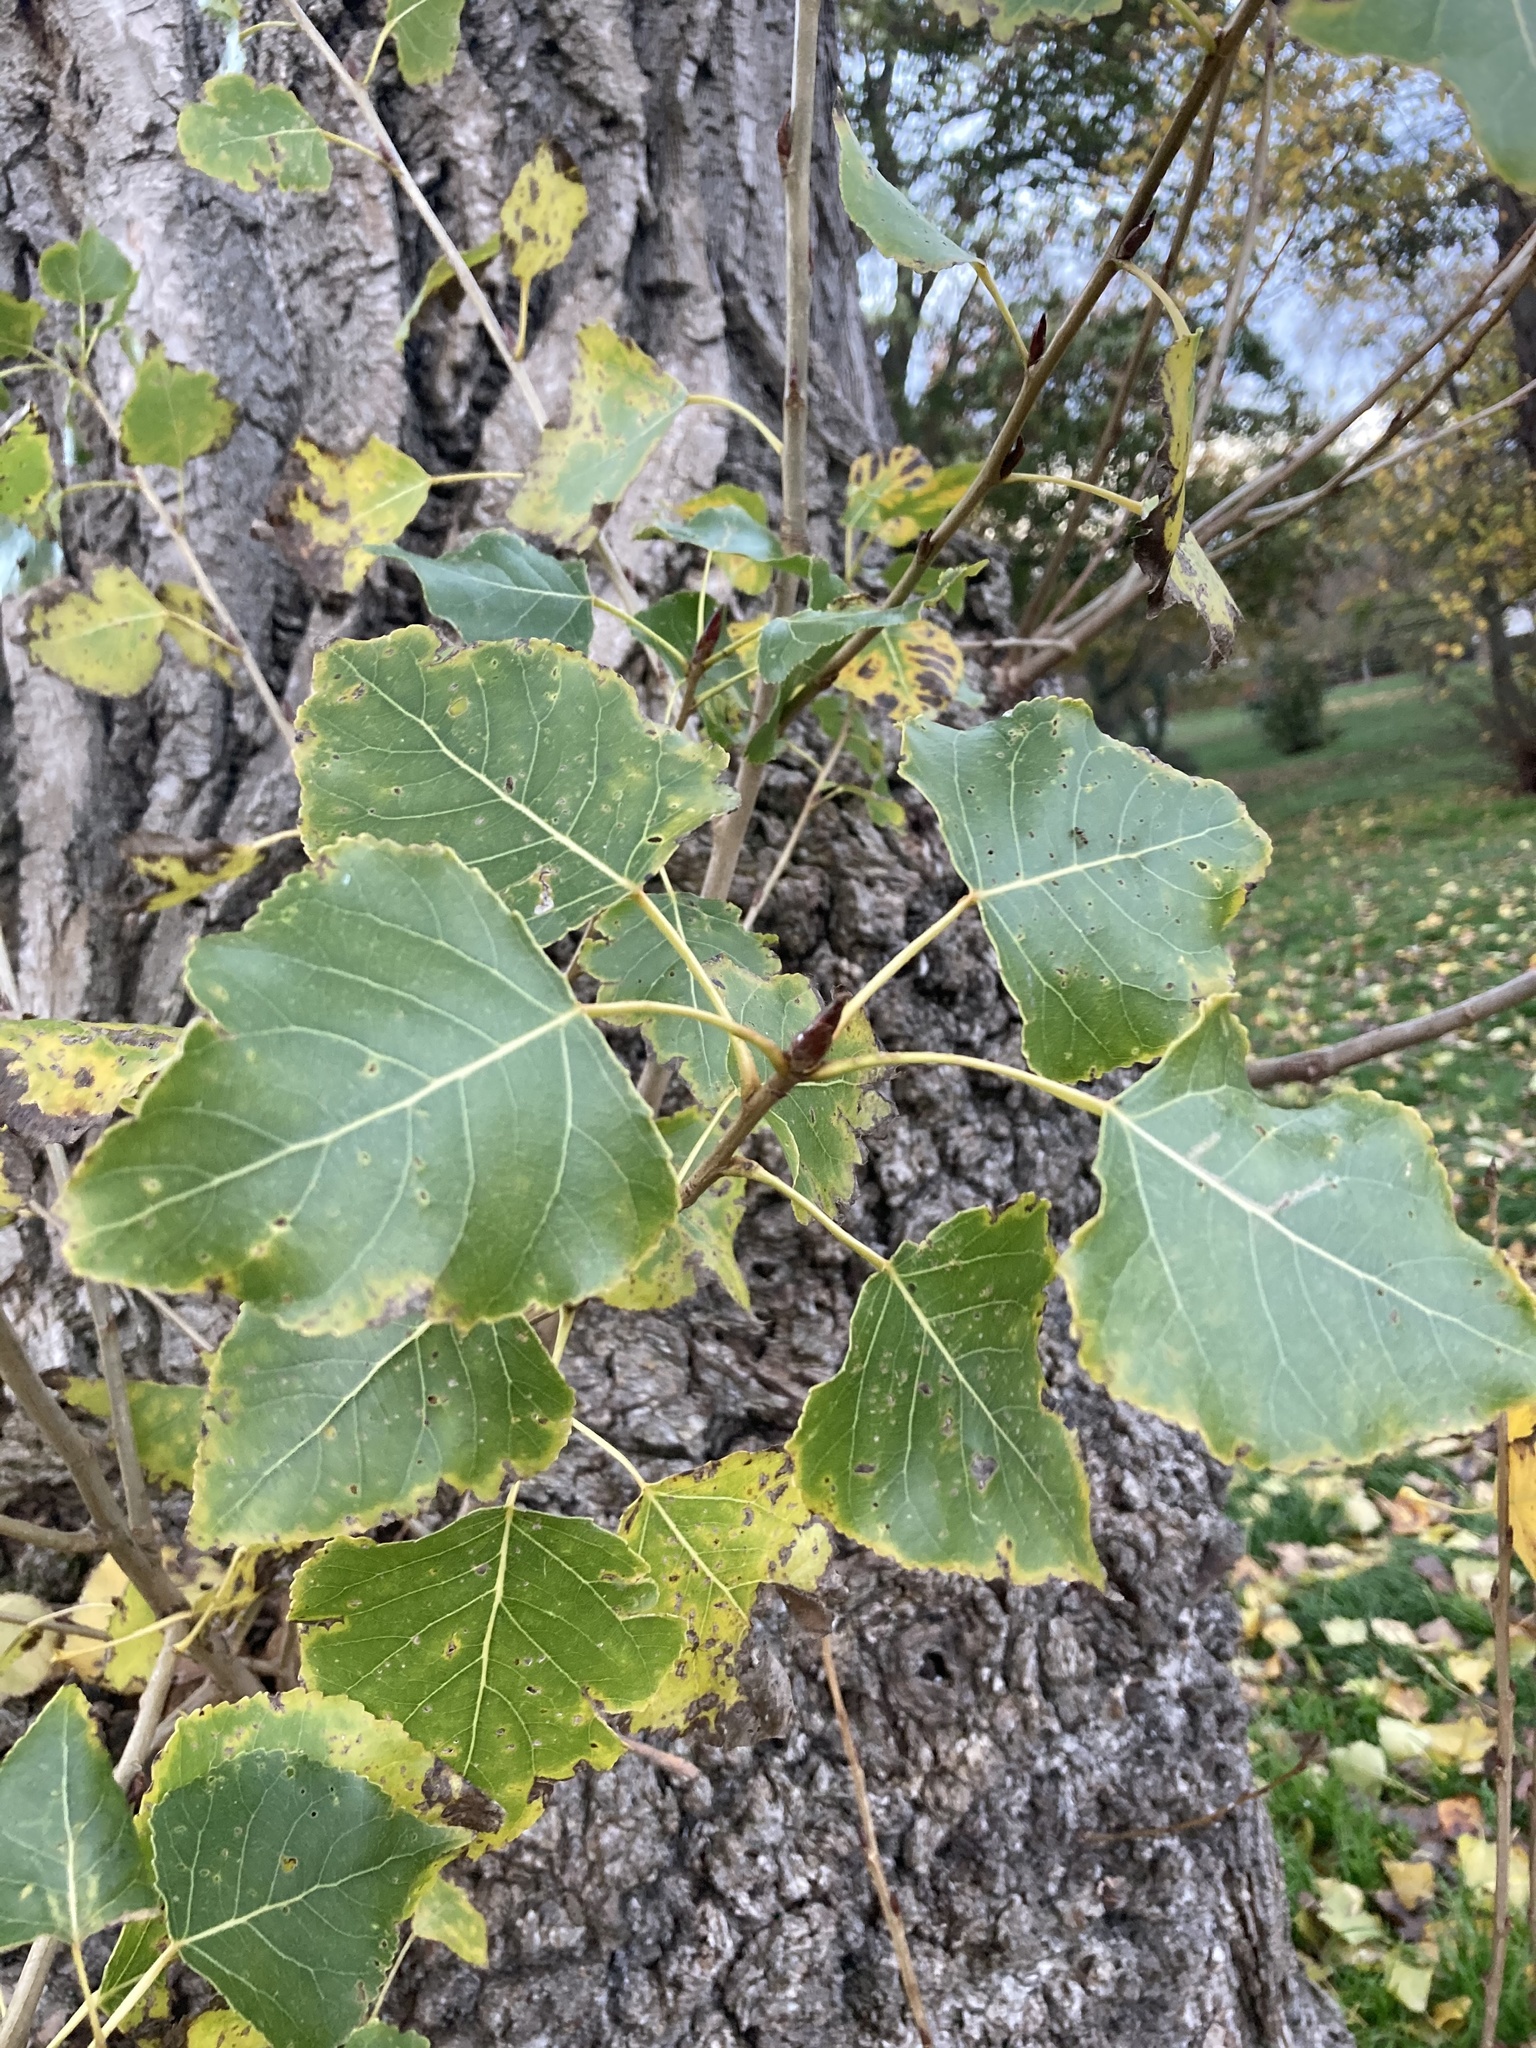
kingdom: Plantae
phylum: Tracheophyta
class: Magnoliopsida
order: Malpighiales
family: Salicaceae
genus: Populus
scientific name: Populus nigra
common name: Black poplar
